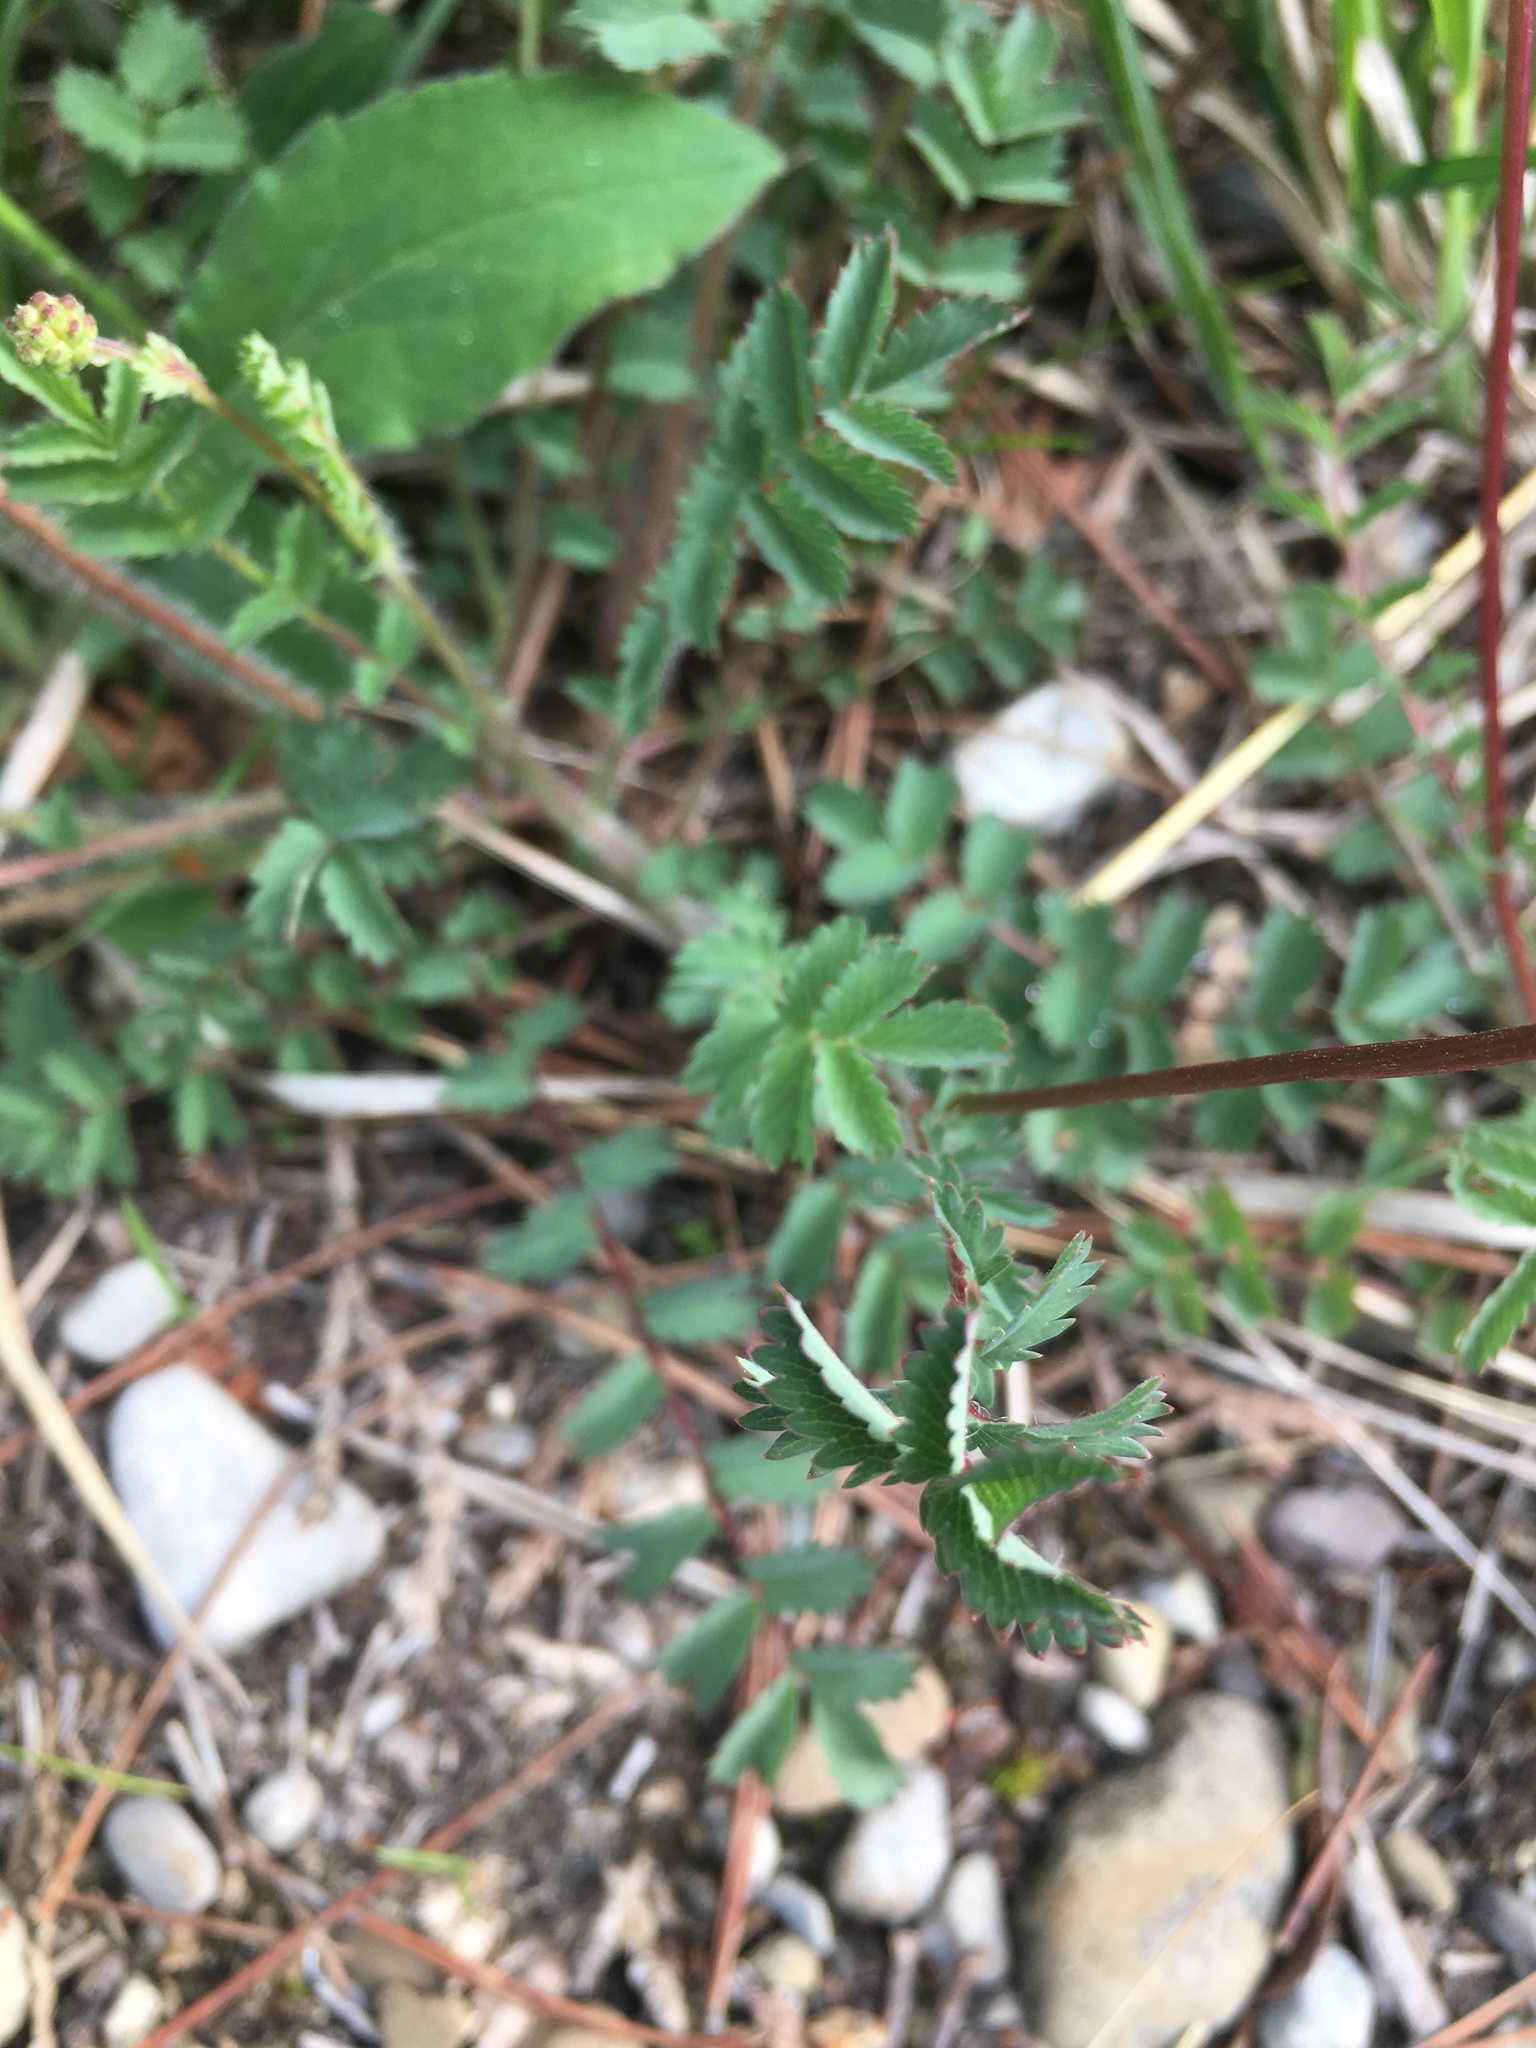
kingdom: Plantae
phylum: Tracheophyta
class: Magnoliopsida
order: Rosales
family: Rosaceae
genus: Poterium
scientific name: Poterium sanguisorba
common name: Salad burnet
